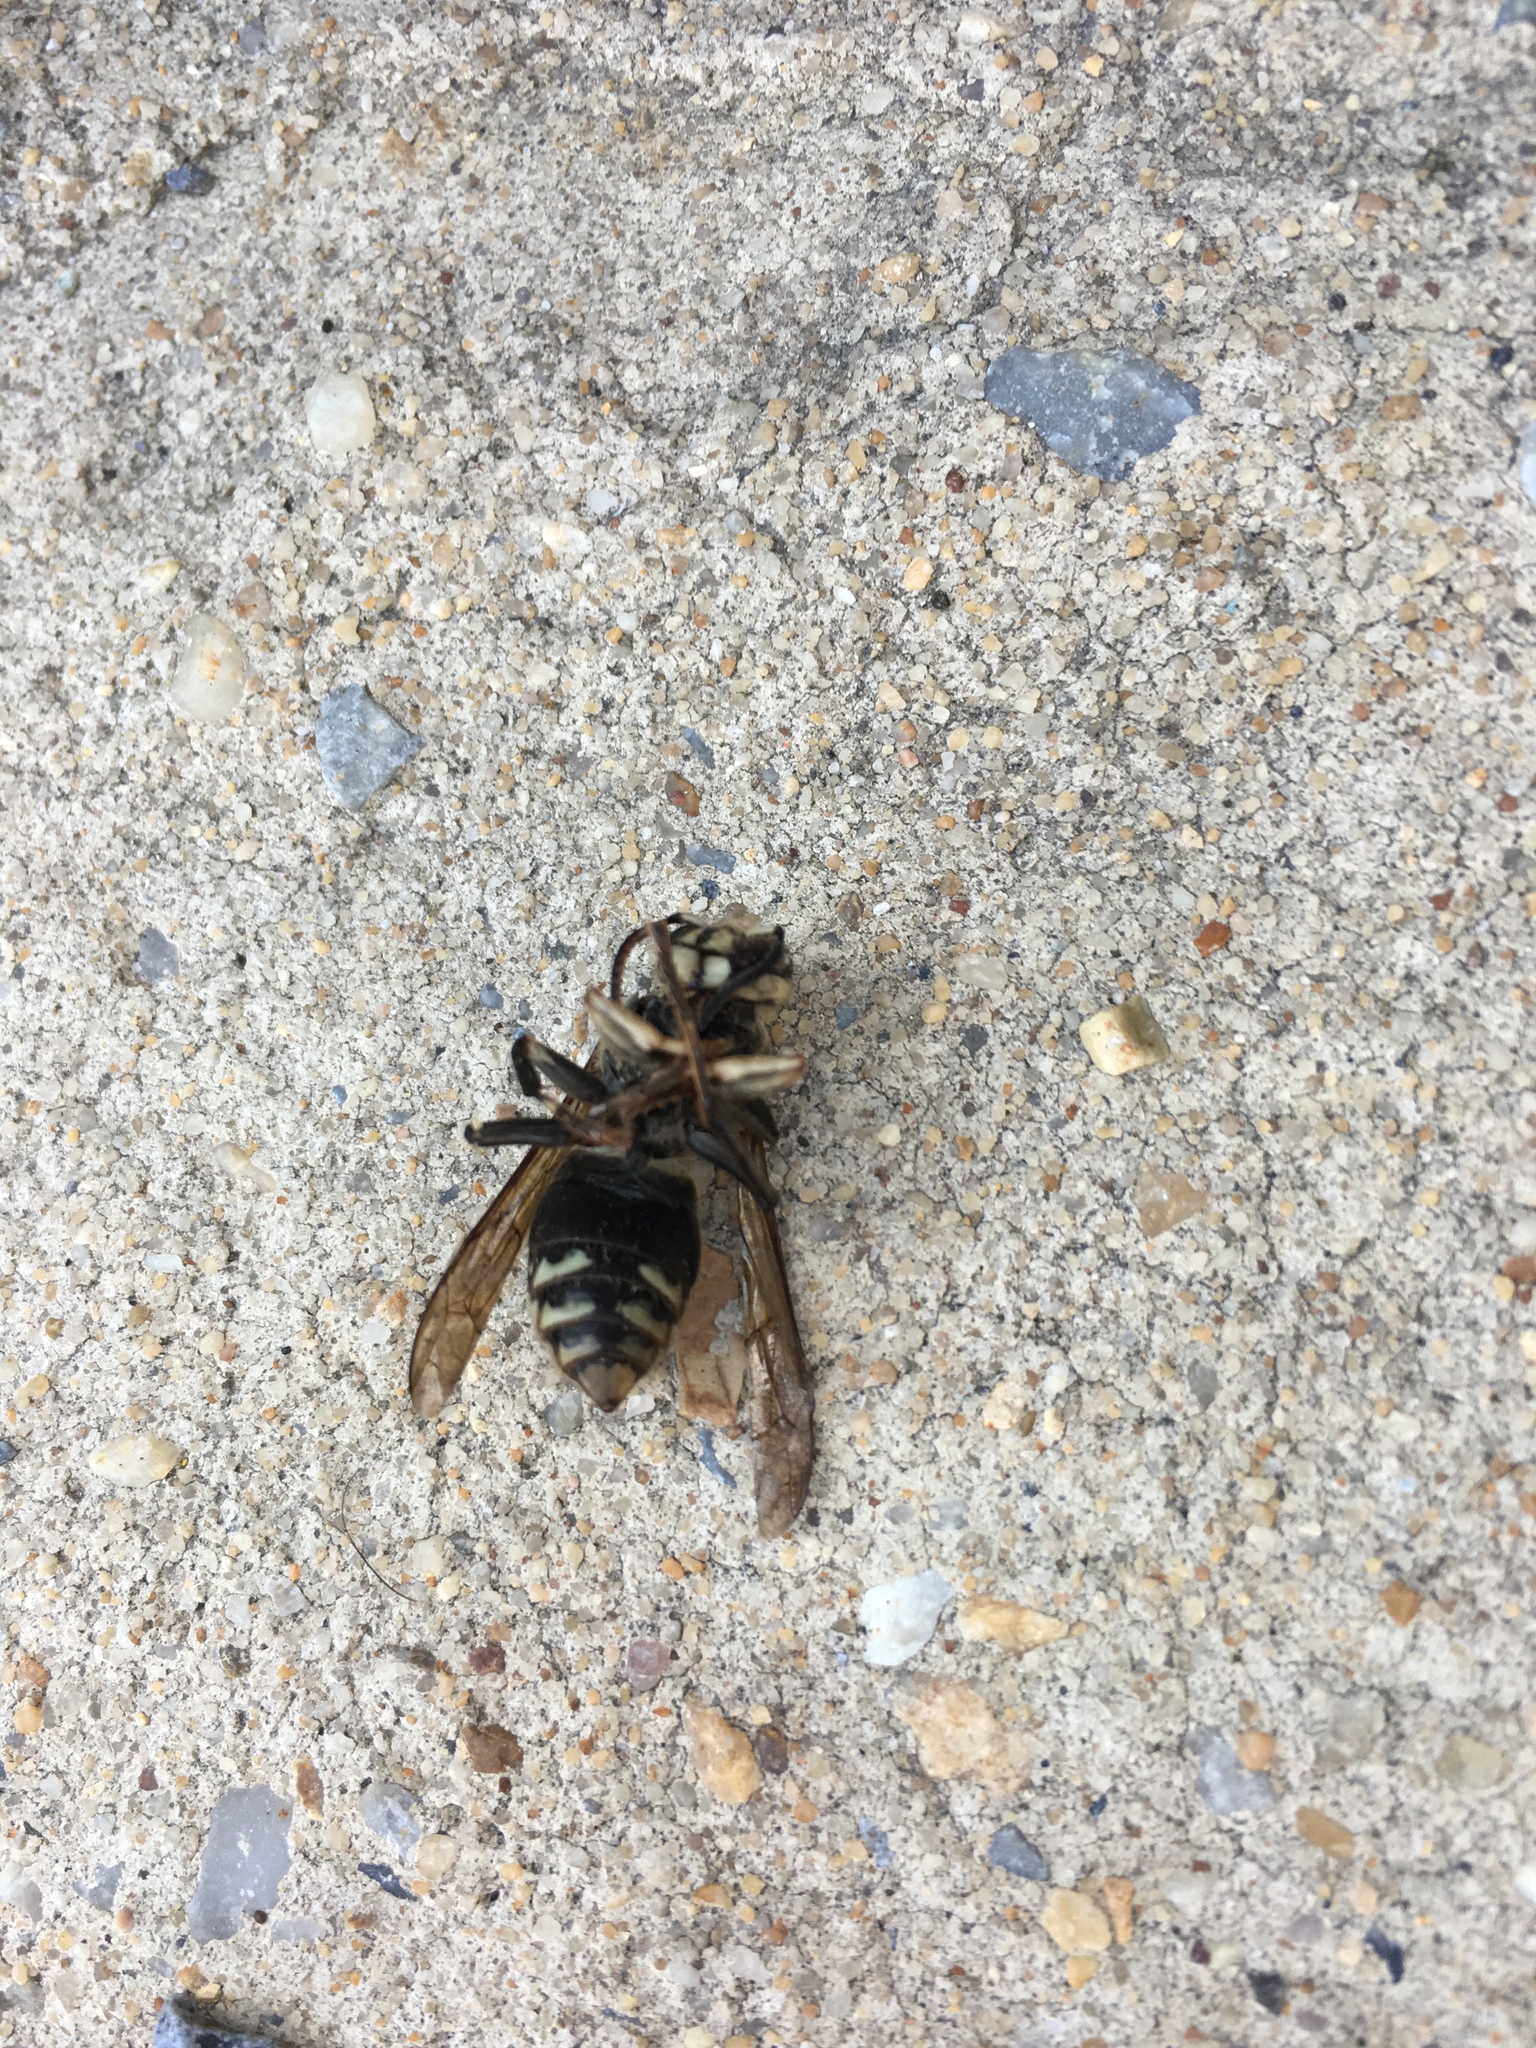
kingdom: Animalia
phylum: Arthropoda
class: Insecta
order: Hymenoptera
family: Vespidae
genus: Dolichovespula
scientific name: Dolichovespula maculata
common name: Bald-faced hornet
